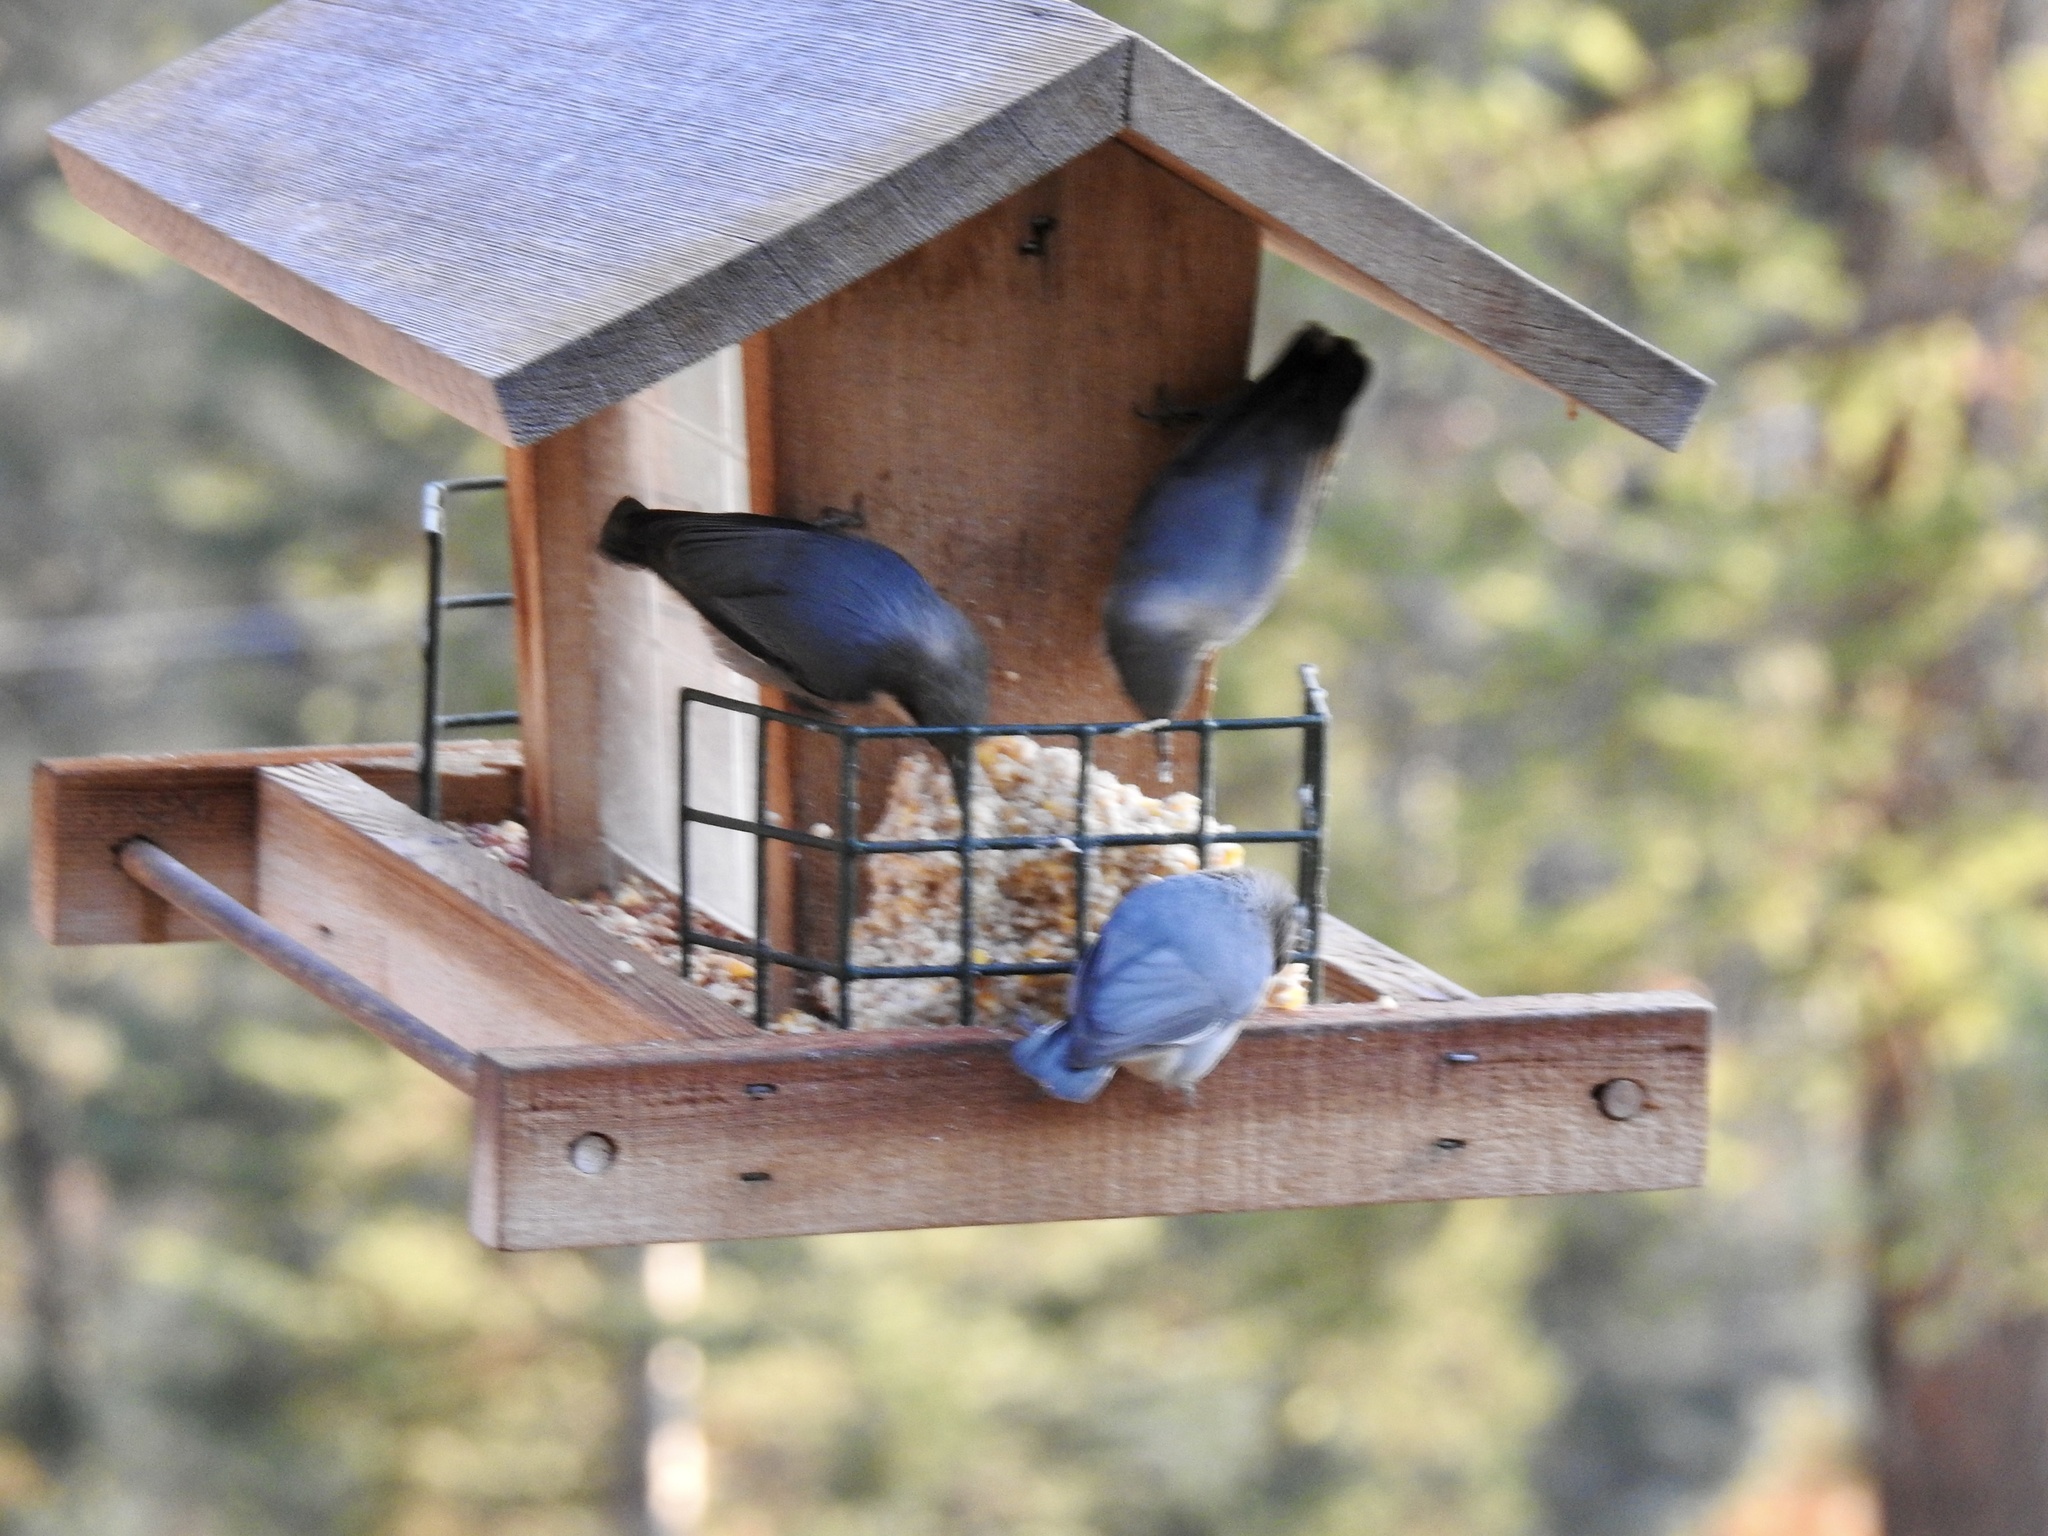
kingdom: Animalia
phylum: Chordata
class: Aves
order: Passeriformes
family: Sittidae
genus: Sitta
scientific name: Sitta pygmaea
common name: Pygmy nuthatch
